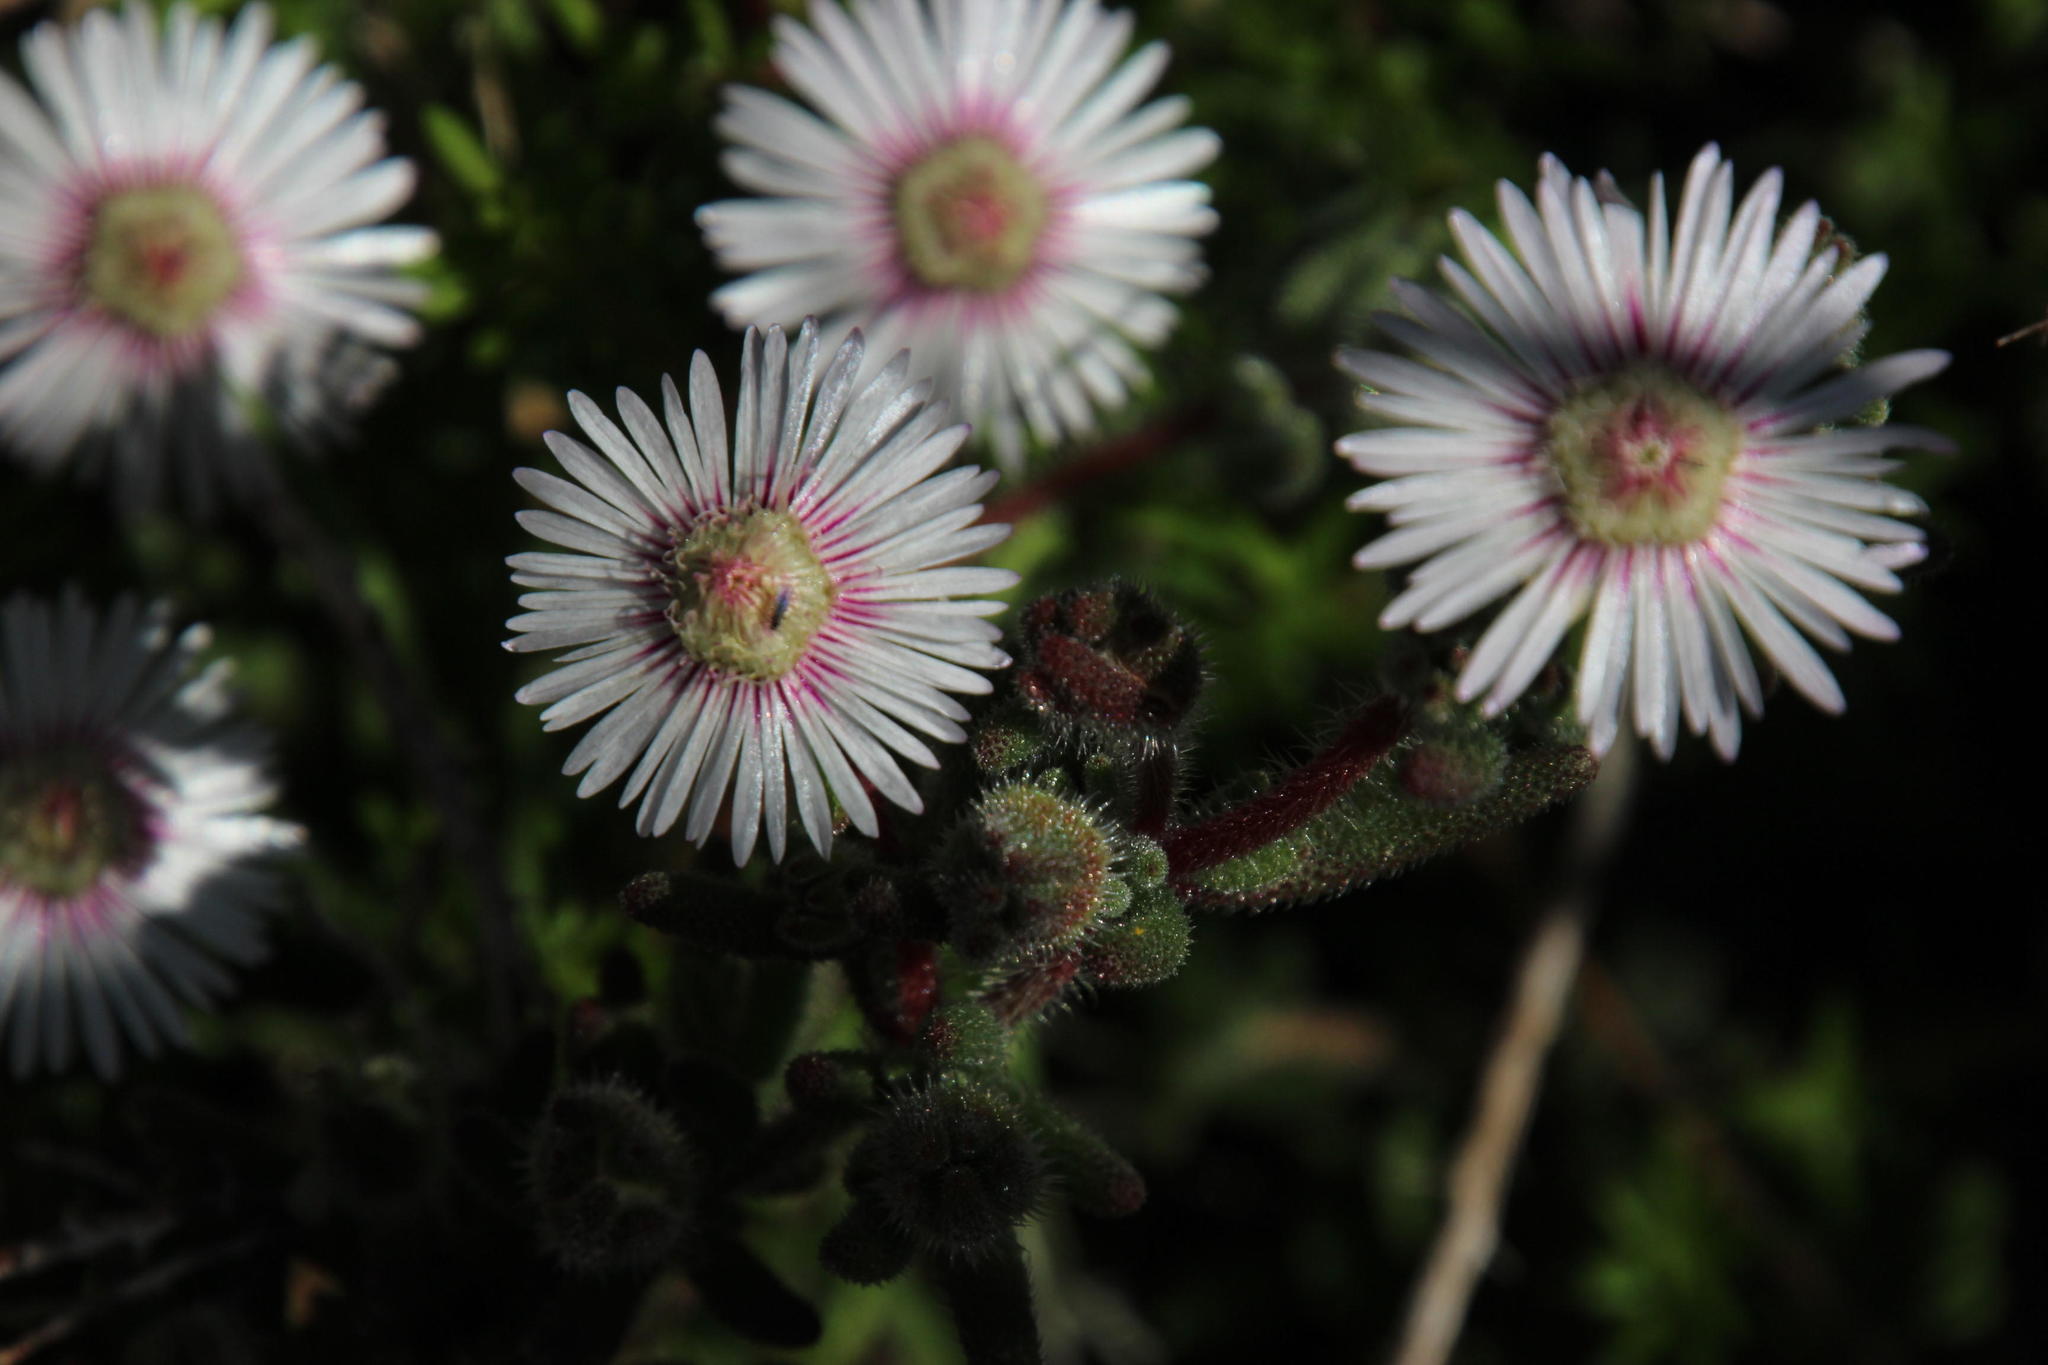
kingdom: Plantae
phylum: Tracheophyta
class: Magnoliopsida
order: Caryophyllales
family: Aizoaceae
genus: Drosanthemum
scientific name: Drosanthemum hispifolium
